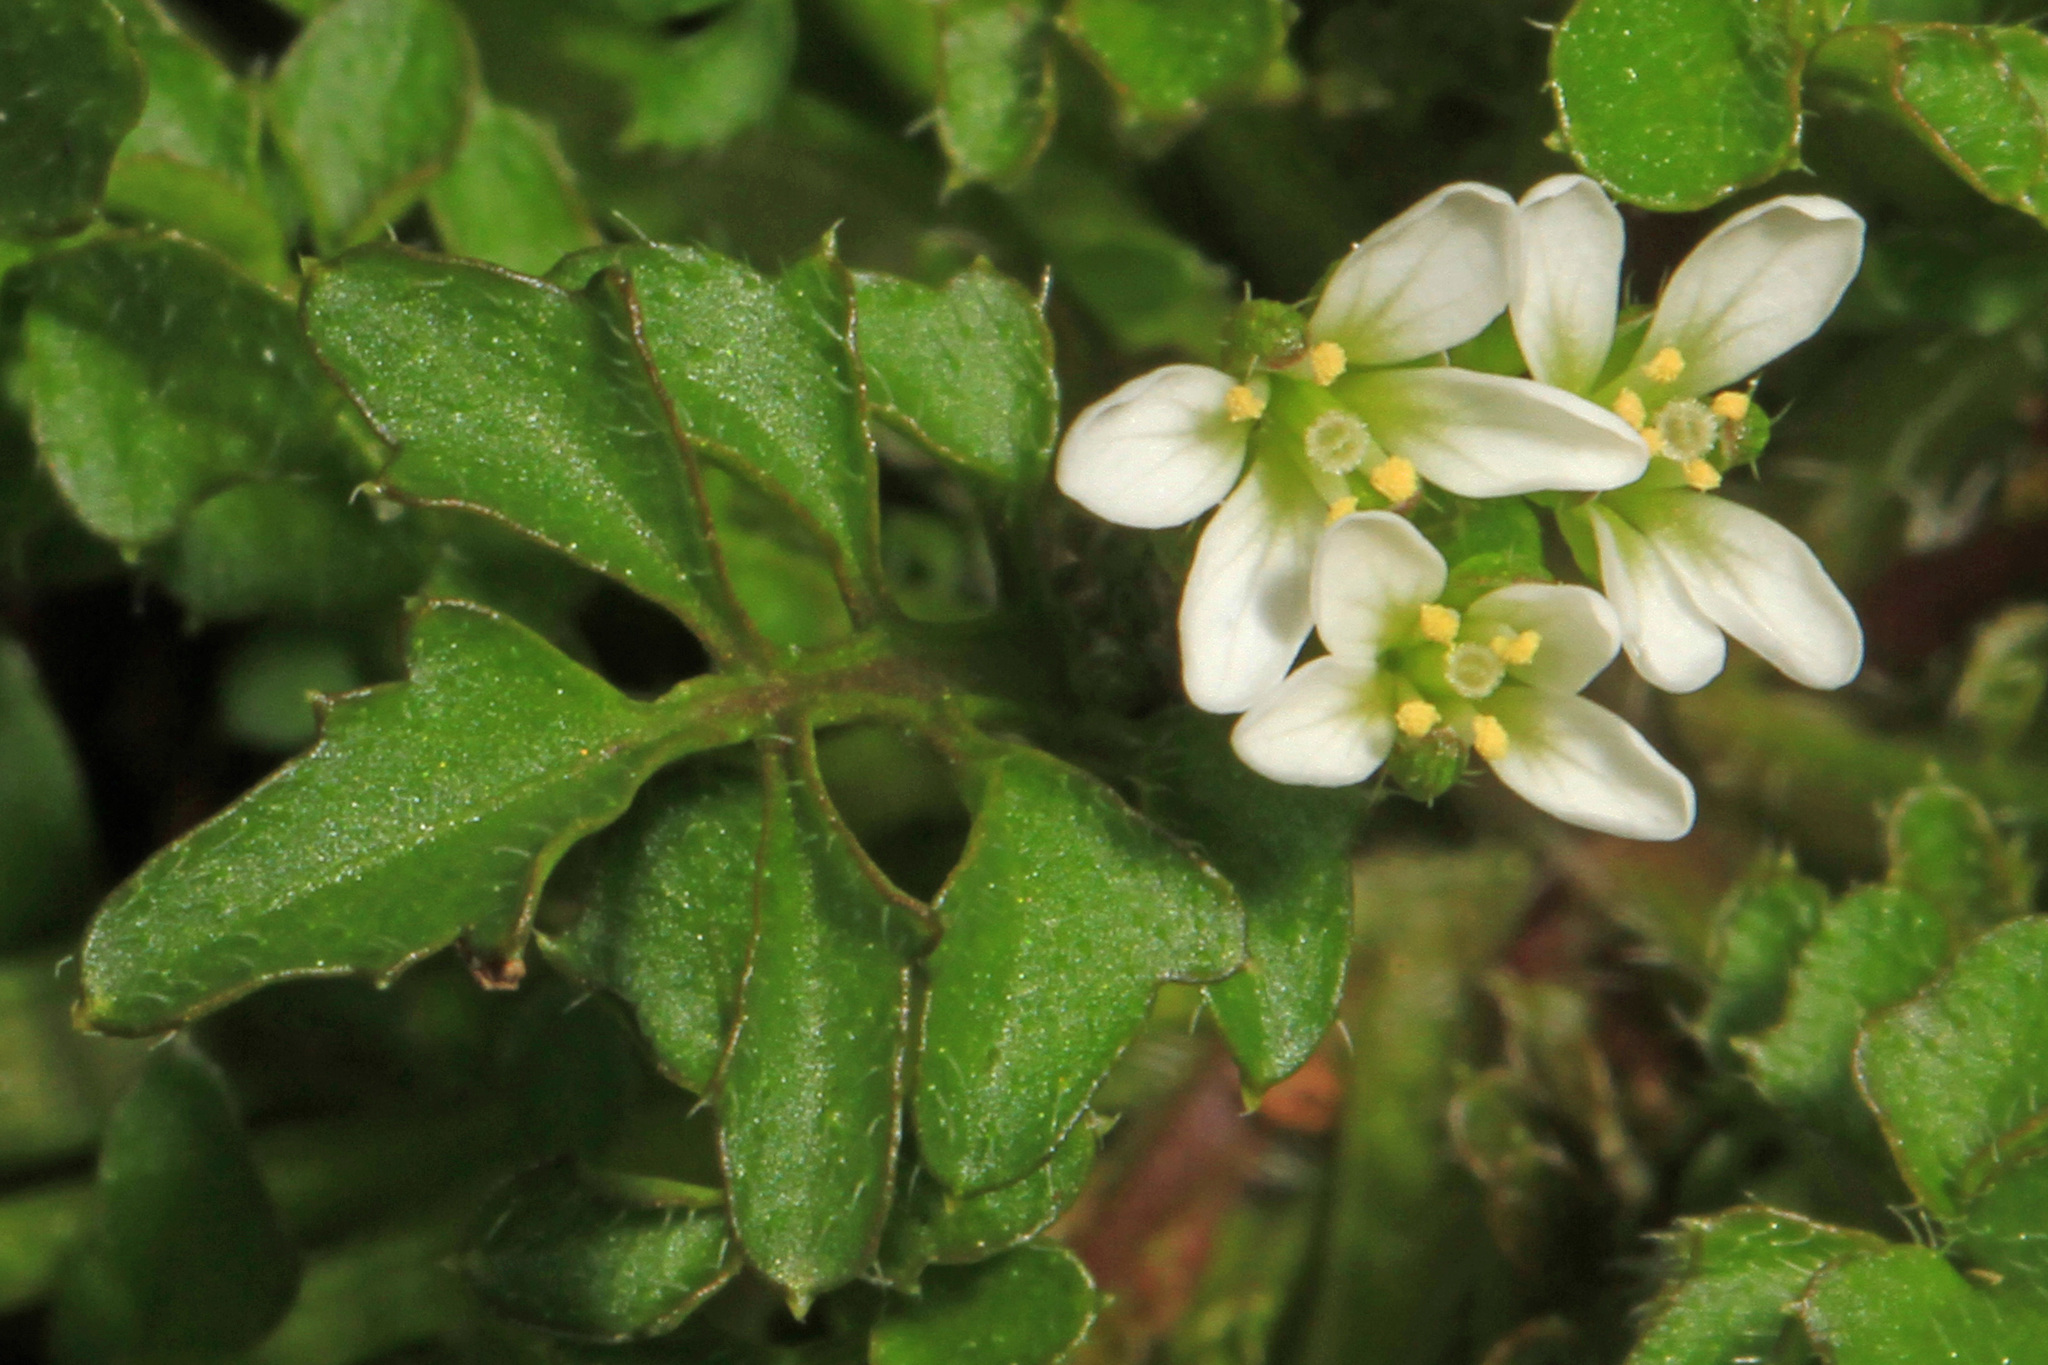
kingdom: Plantae
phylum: Tracheophyta
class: Magnoliopsida
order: Brassicales
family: Brassicaceae
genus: Cardamine
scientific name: Cardamine hirsuta
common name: Hairy bittercress
